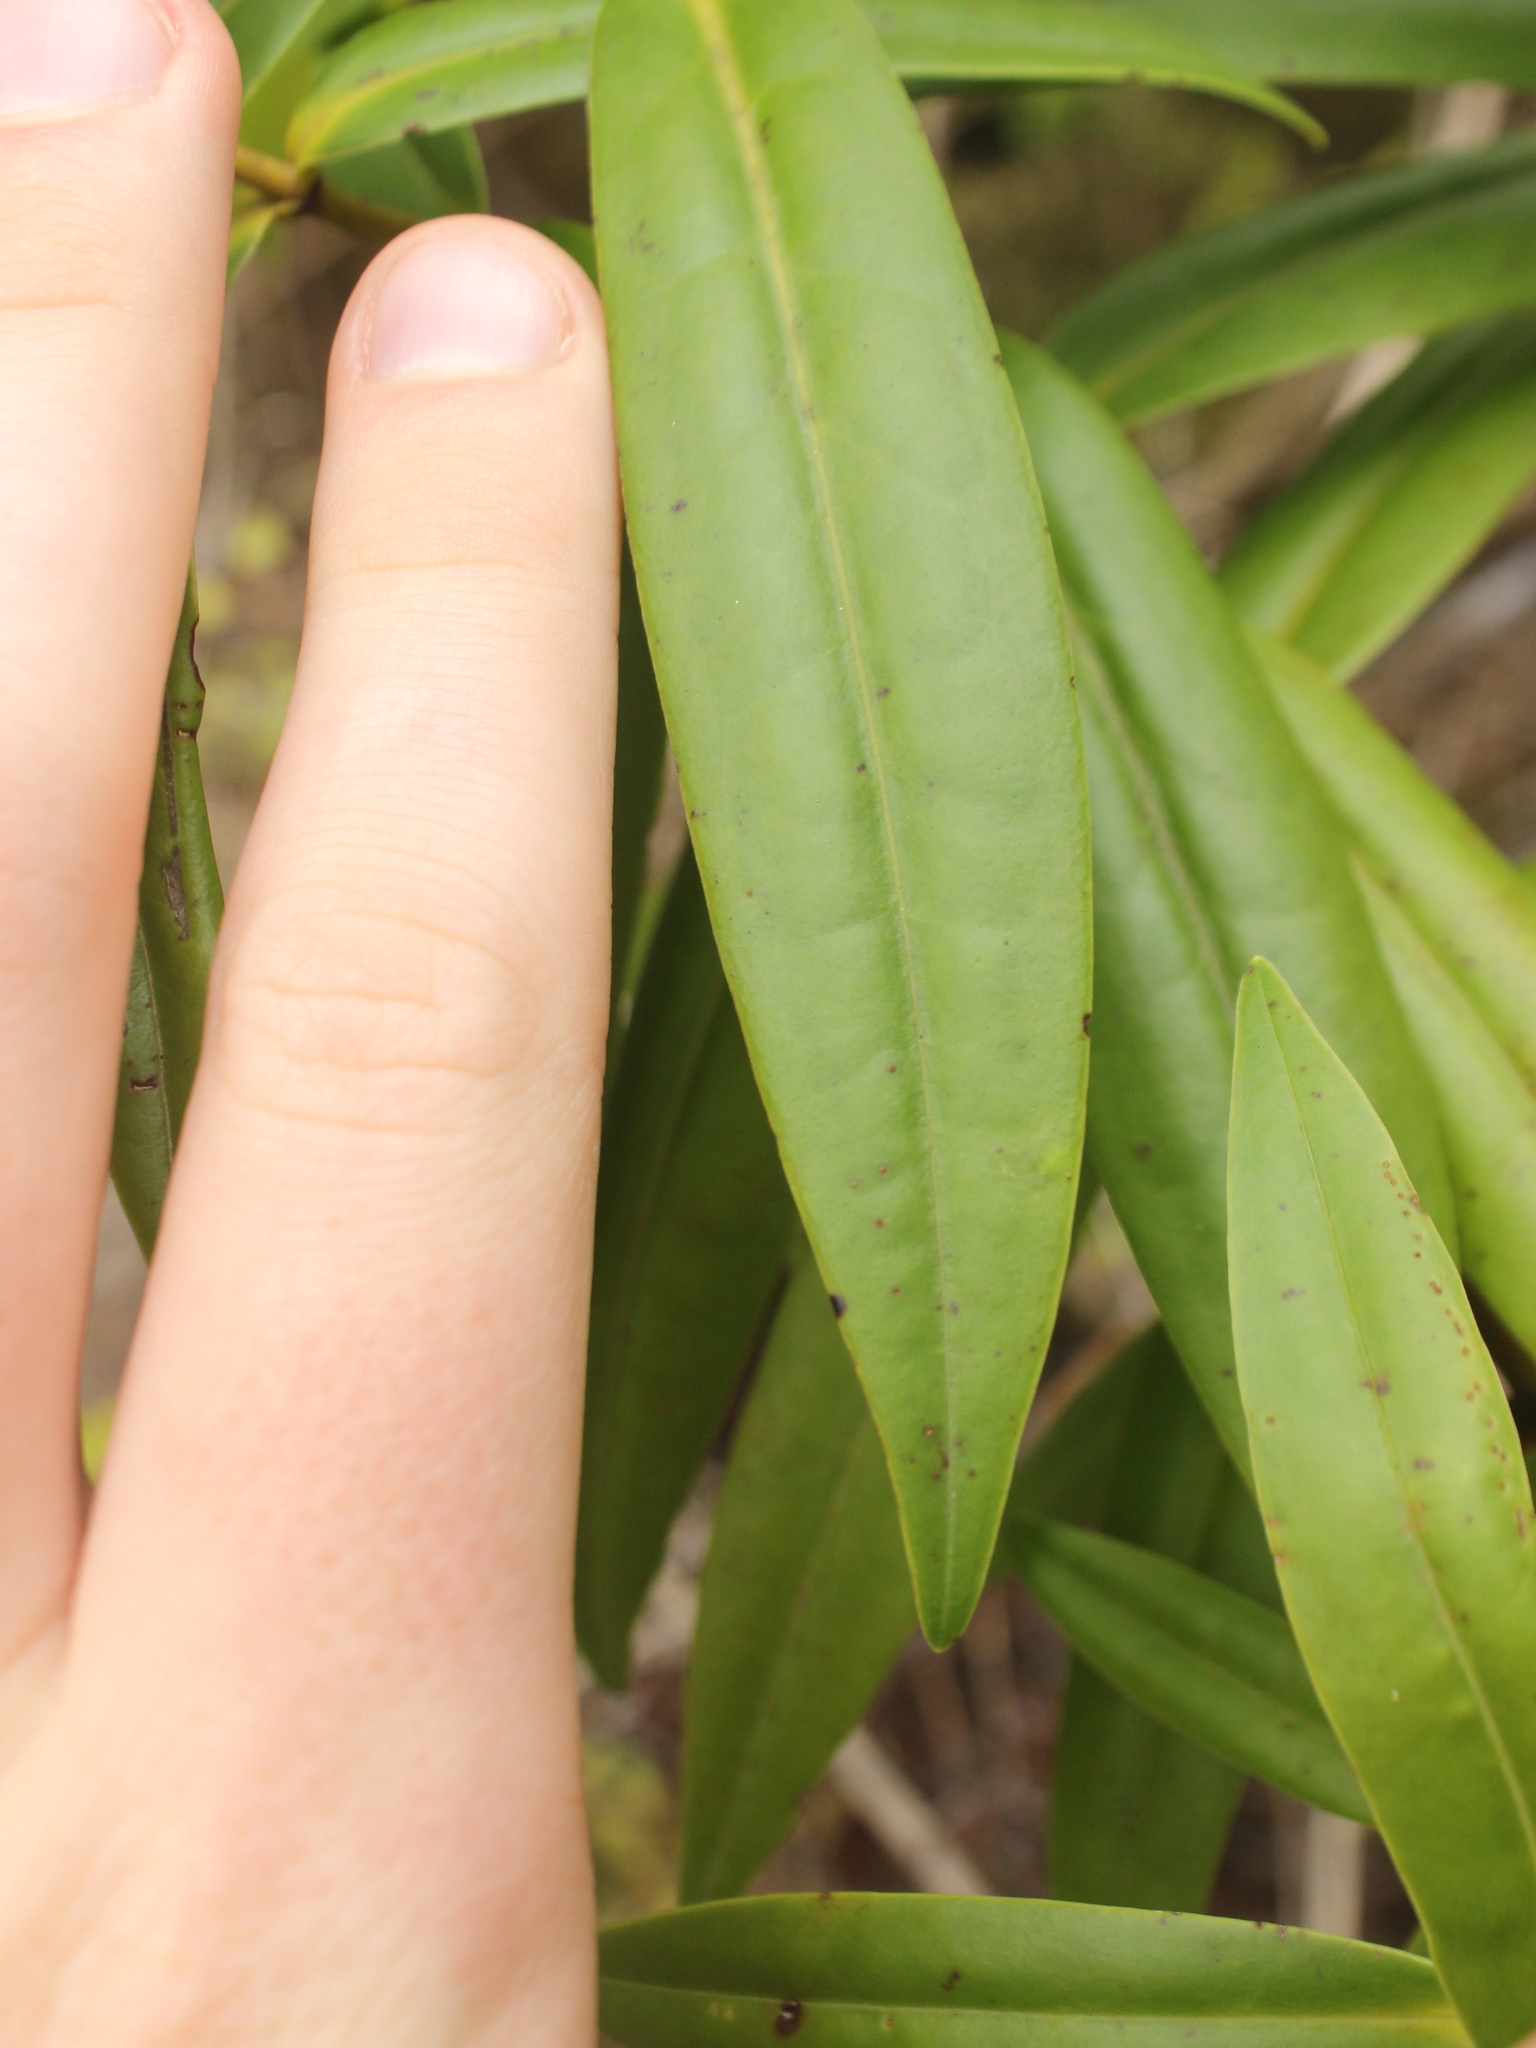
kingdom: Plantae
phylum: Tracheophyta
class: Magnoliopsida
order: Lamiales
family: Plantaginaceae
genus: Veronica
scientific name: Veronica macrocarpa
